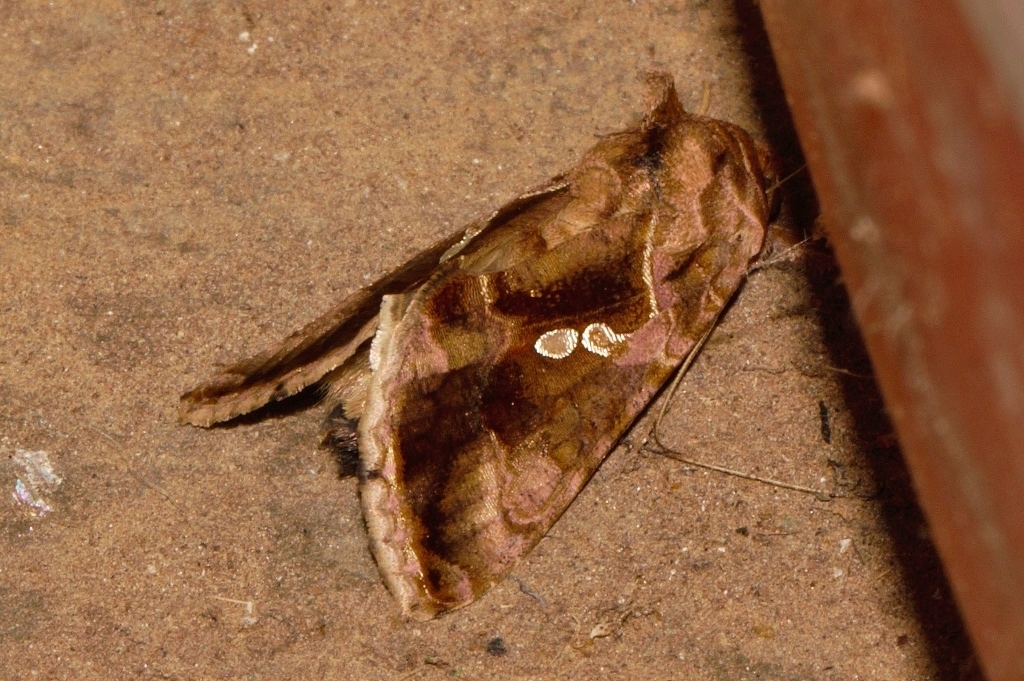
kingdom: Animalia
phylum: Arthropoda
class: Insecta
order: Lepidoptera
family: Noctuidae
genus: Chrysodeixis
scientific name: Chrysodeixis chalcites
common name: Golden twin-spot
